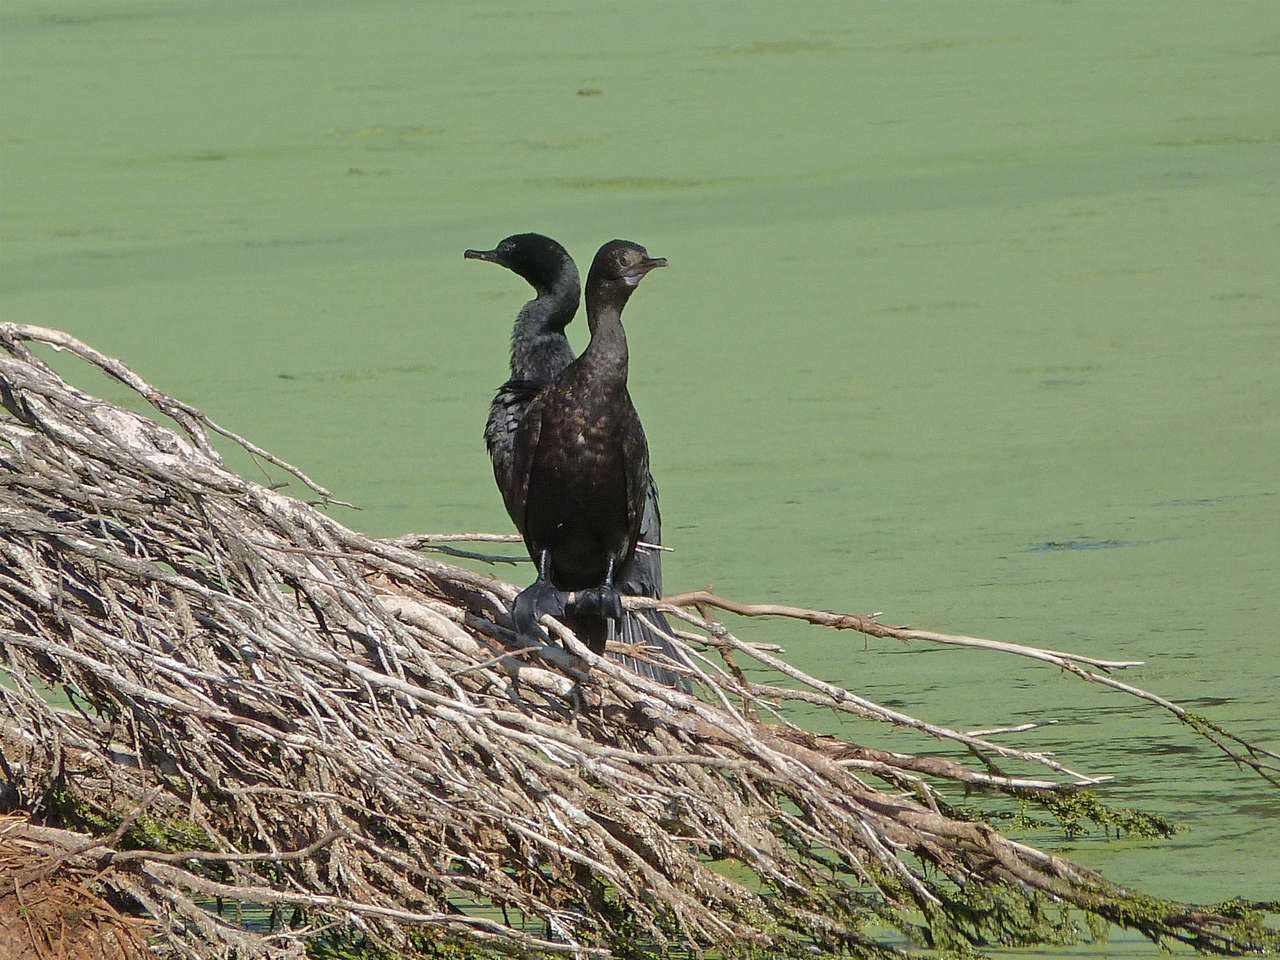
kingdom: Animalia
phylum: Chordata
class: Aves
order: Suliformes
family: Phalacrocoracidae
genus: Phalacrocorax
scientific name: Phalacrocorax sulcirostris
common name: Little black cormorant
